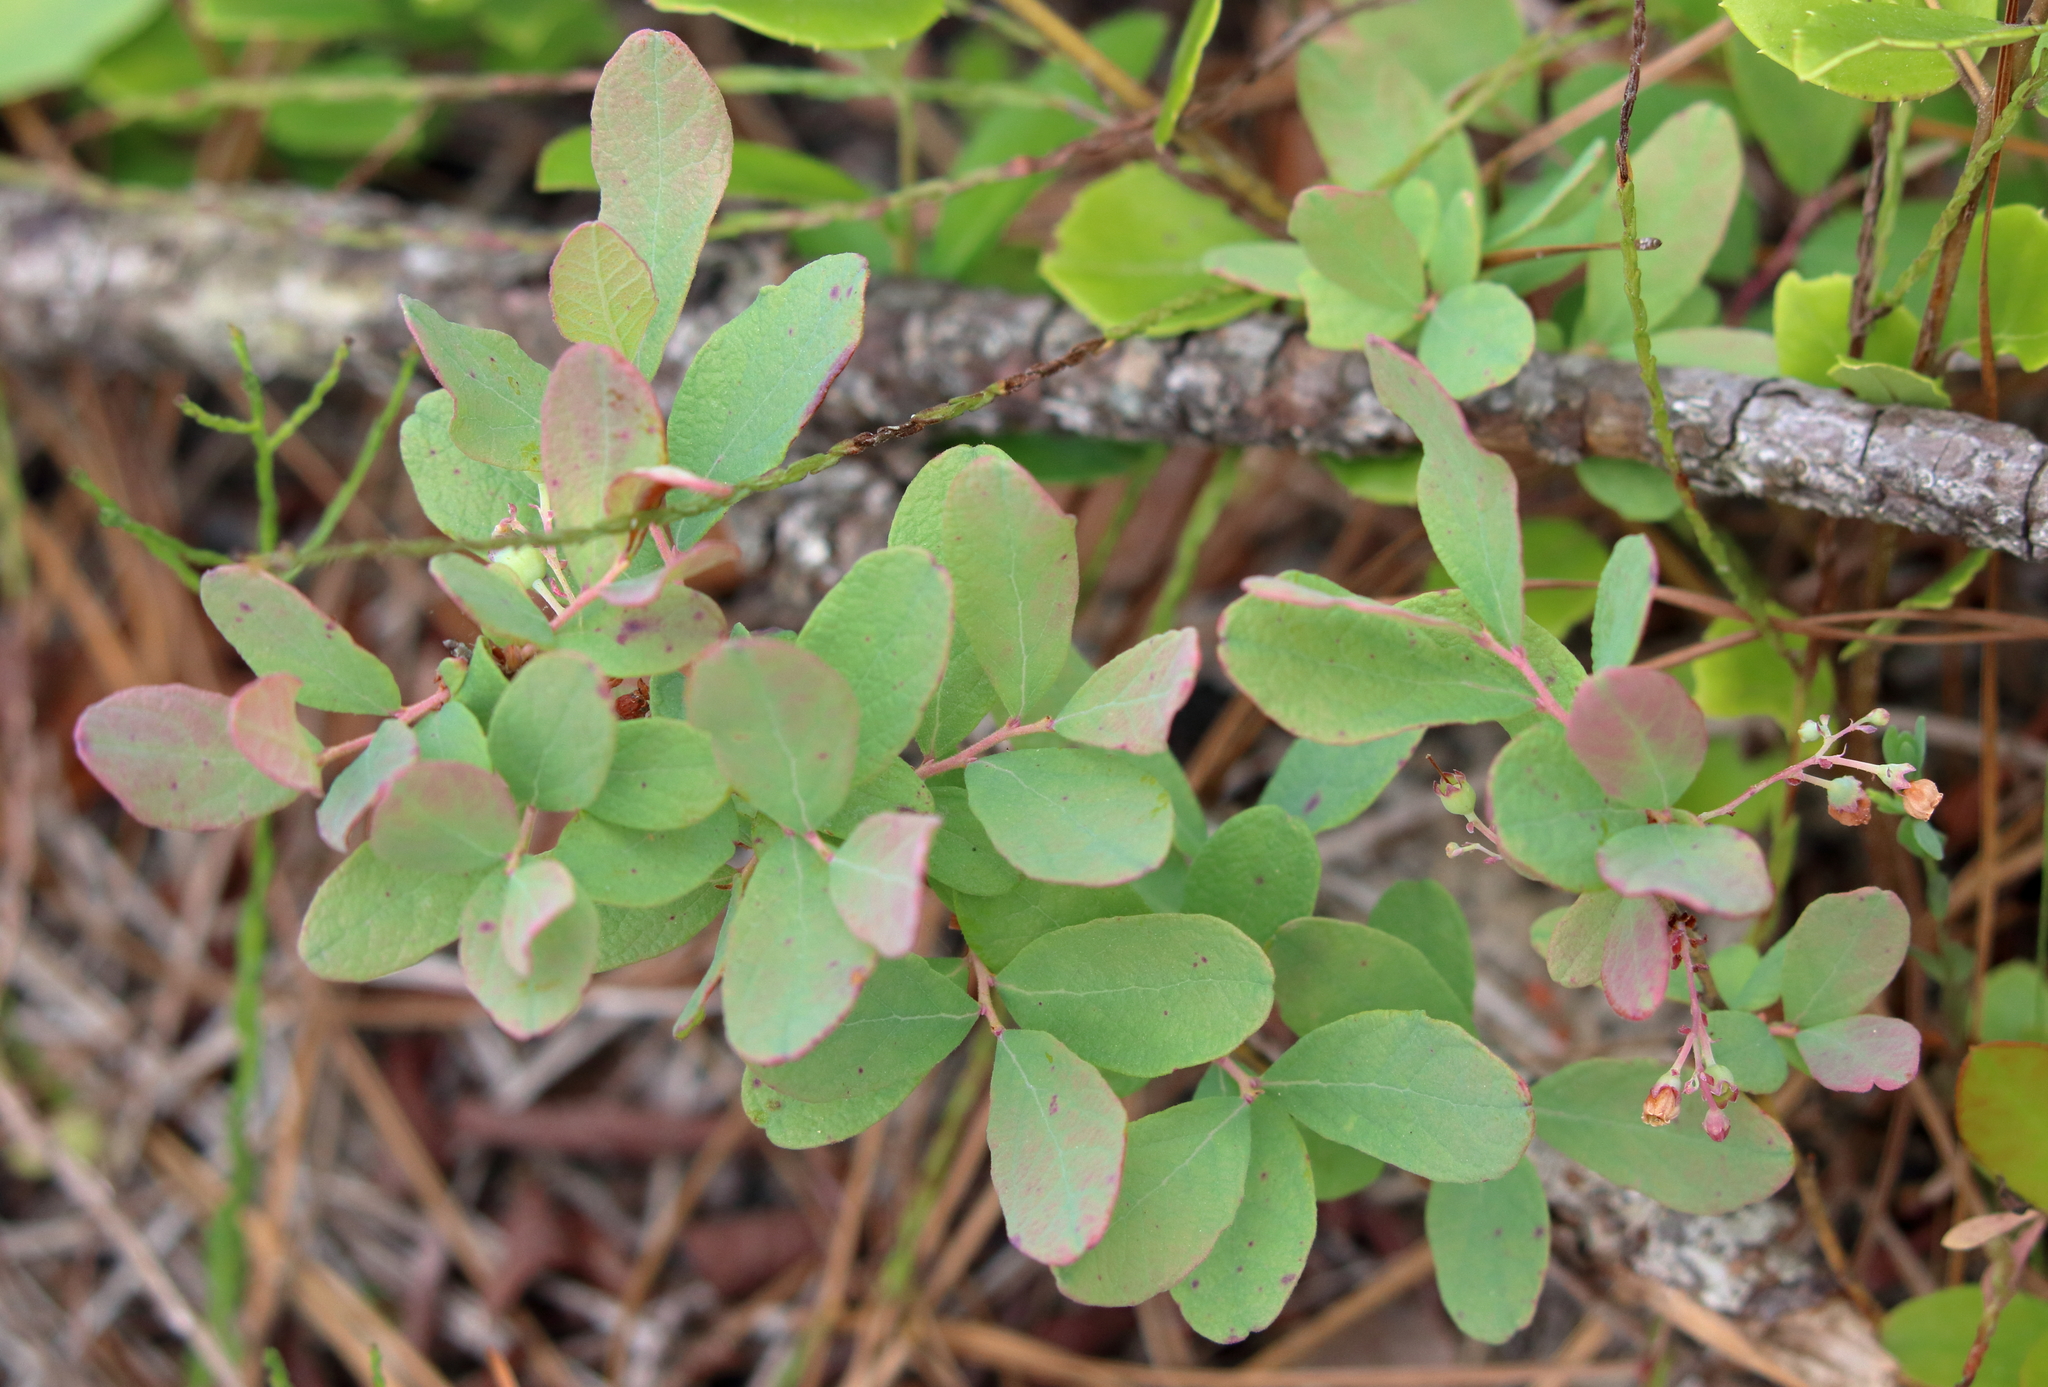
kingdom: Plantae
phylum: Tracheophyta
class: Magnoliopsida
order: Ericales
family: Ericaceae
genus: Gaylussacia
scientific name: Gaylussacia nana
